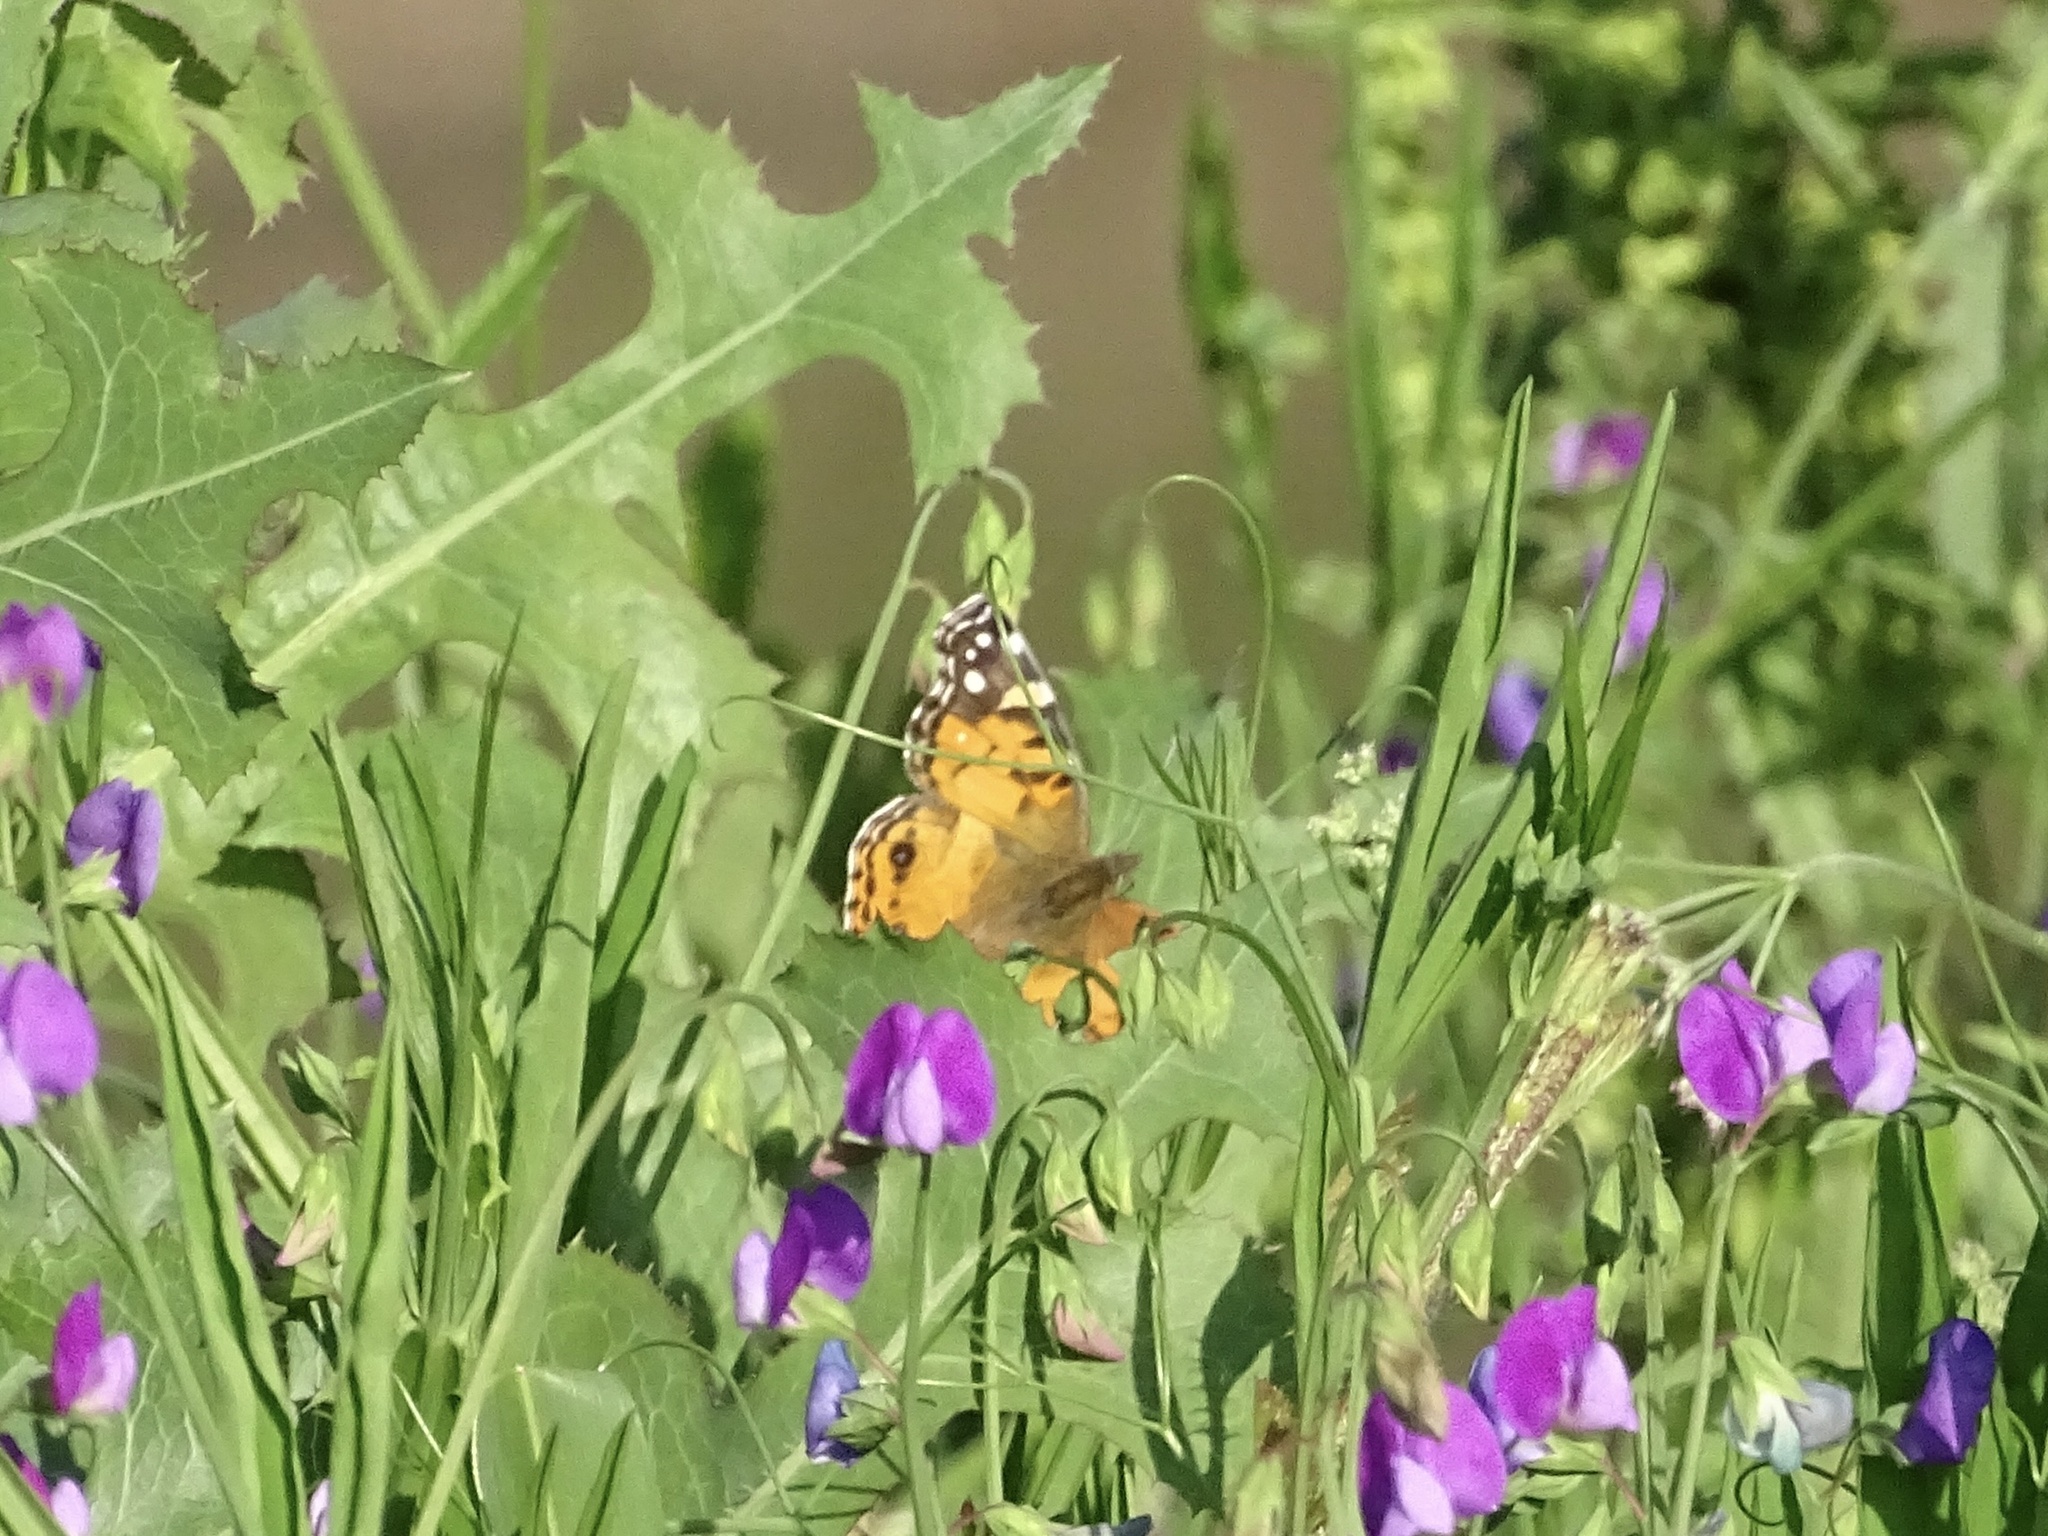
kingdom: Animalia
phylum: Arthropoda
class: Insecta
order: Lepidoptera
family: Nymphalidae
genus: Vanessa
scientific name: Vanessa virginiensis
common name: American lady
